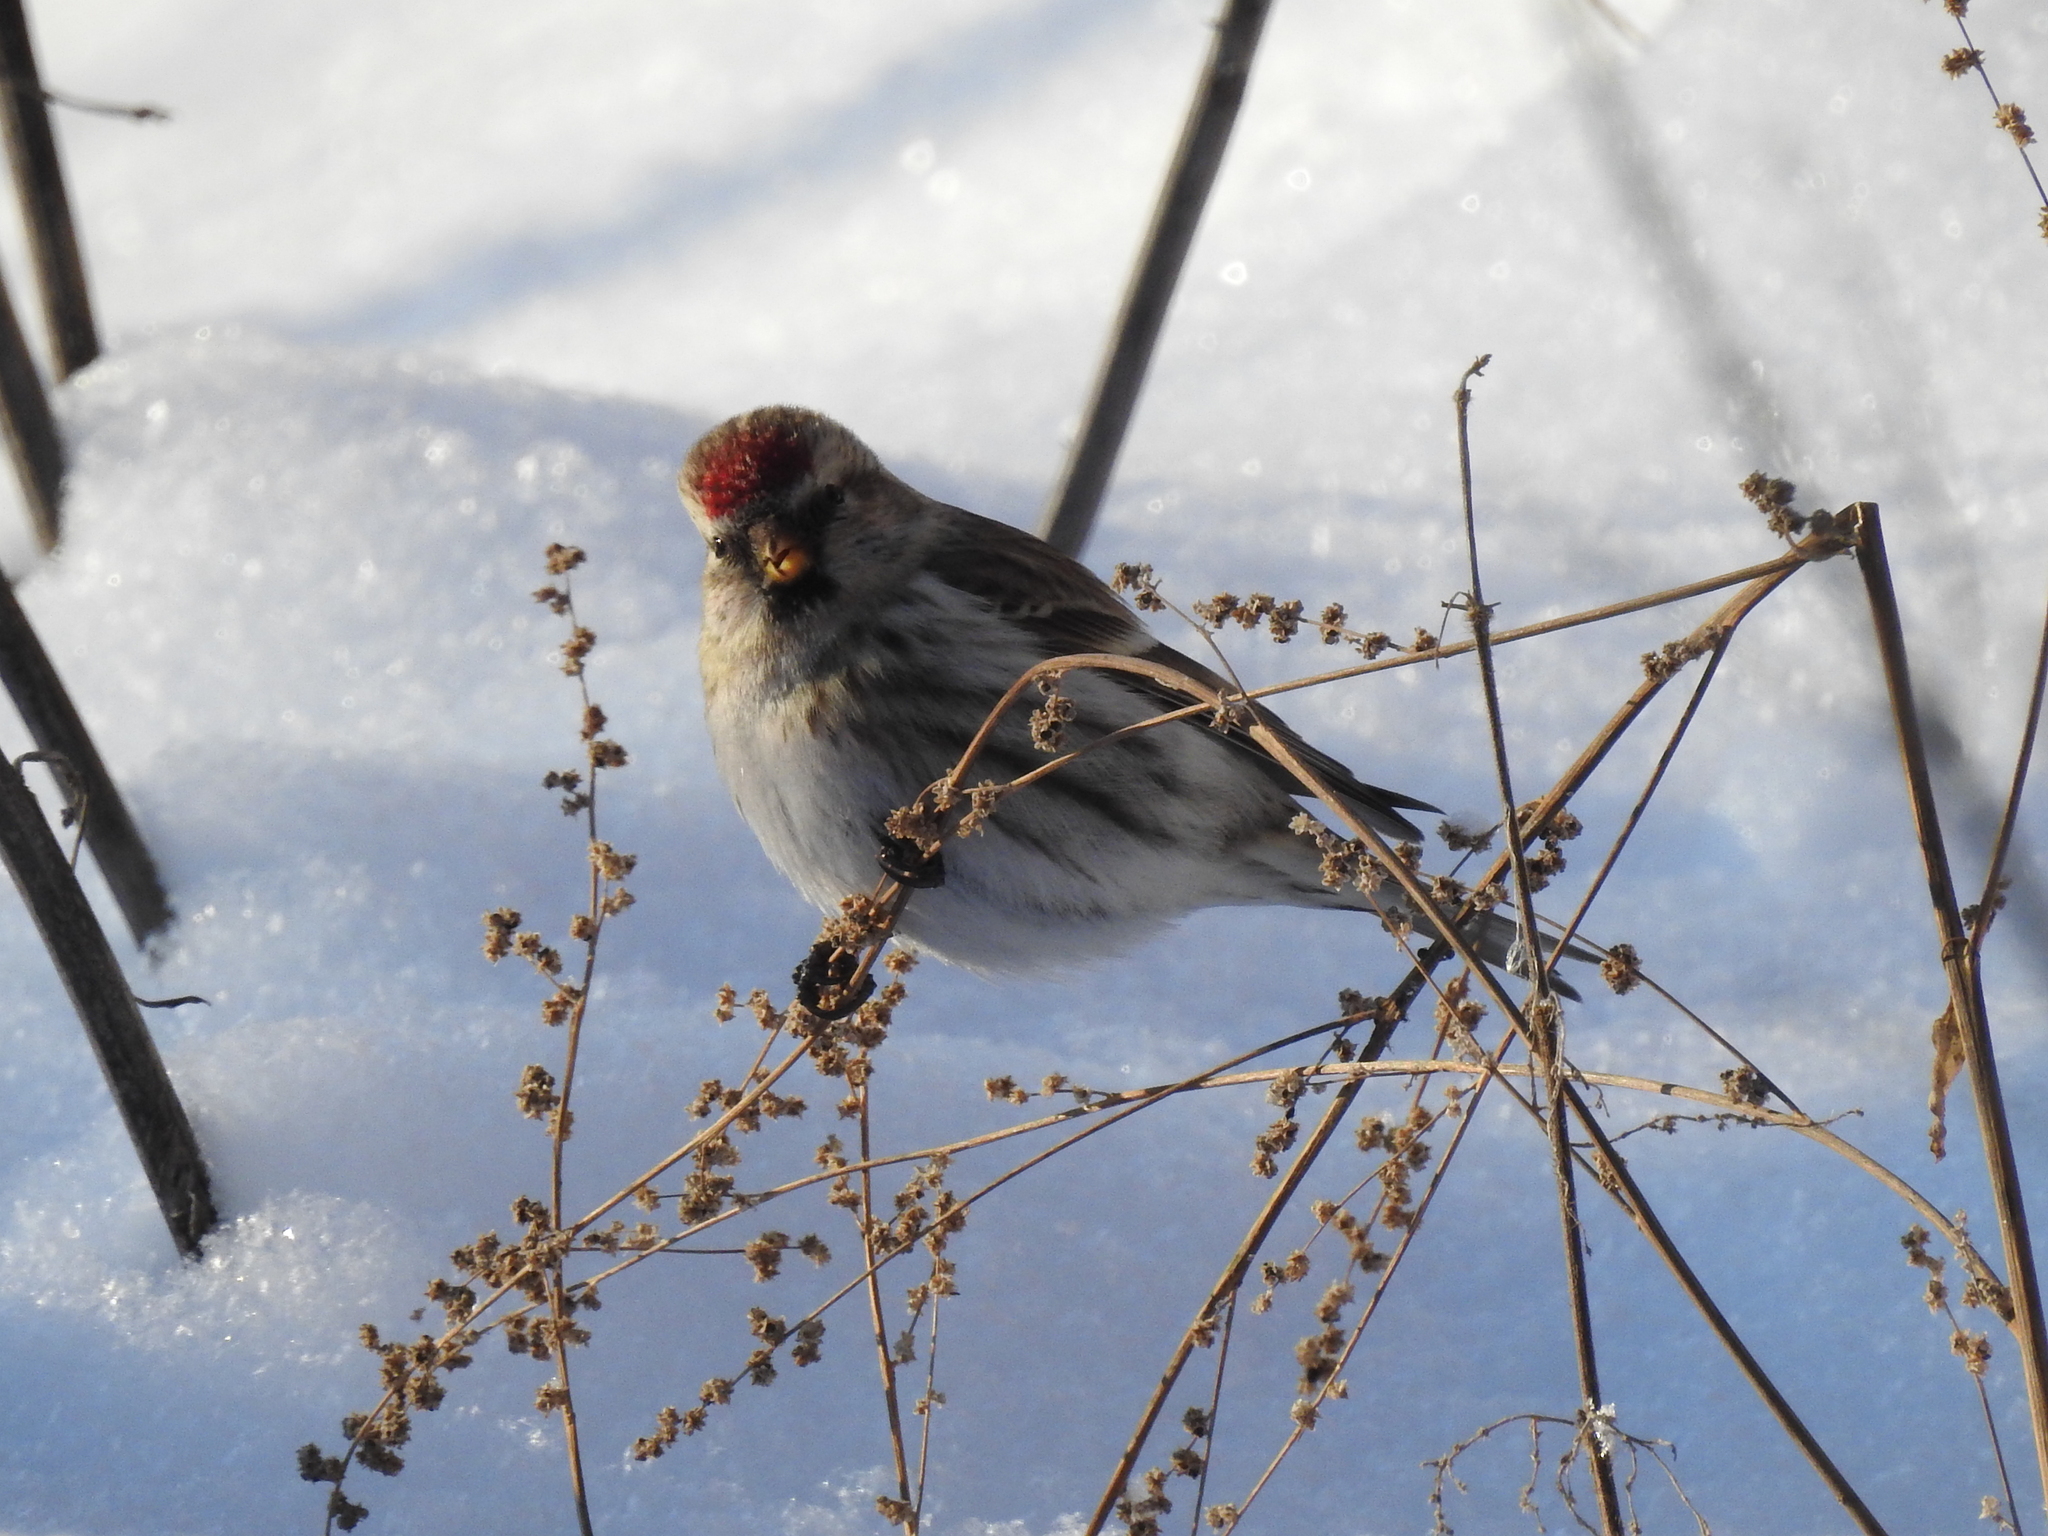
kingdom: Animalia
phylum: Chordata
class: Aves
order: Passeriformes
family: Fringillidae
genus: Acanthis
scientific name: Acanthis flammea
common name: Common redpoll
